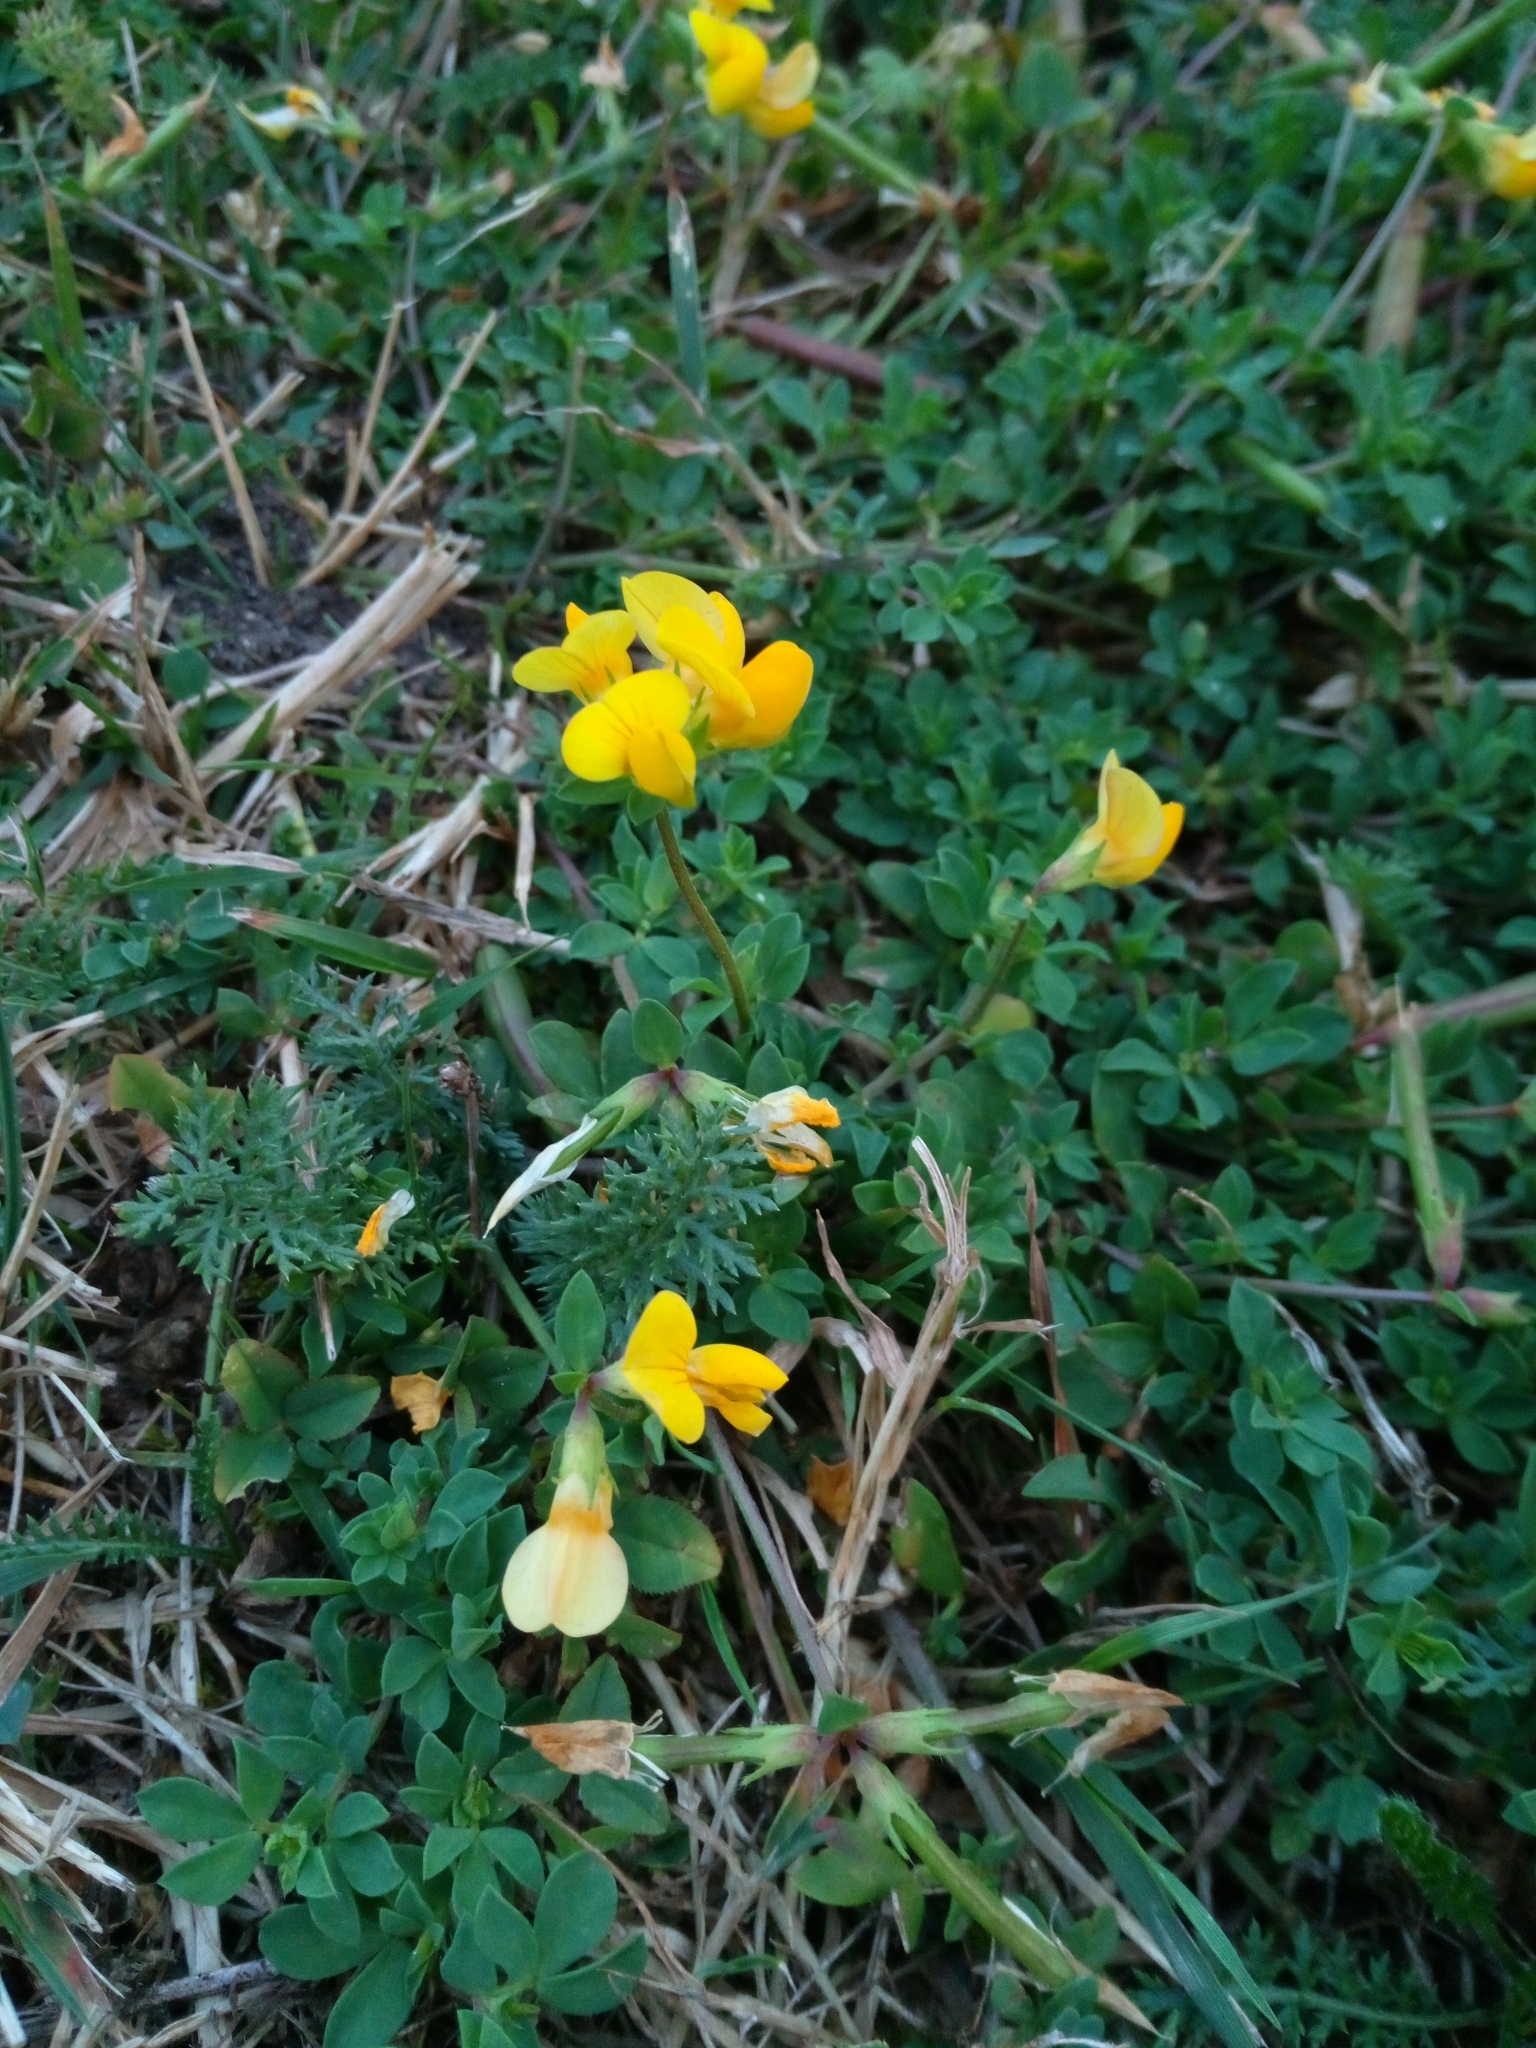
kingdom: Plantae
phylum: Tracheophyta
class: Magnoliopsida
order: Fabales
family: Fabaceae
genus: Lotus
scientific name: Lotus corniculatus
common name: Common bird's-foot-trefoil
